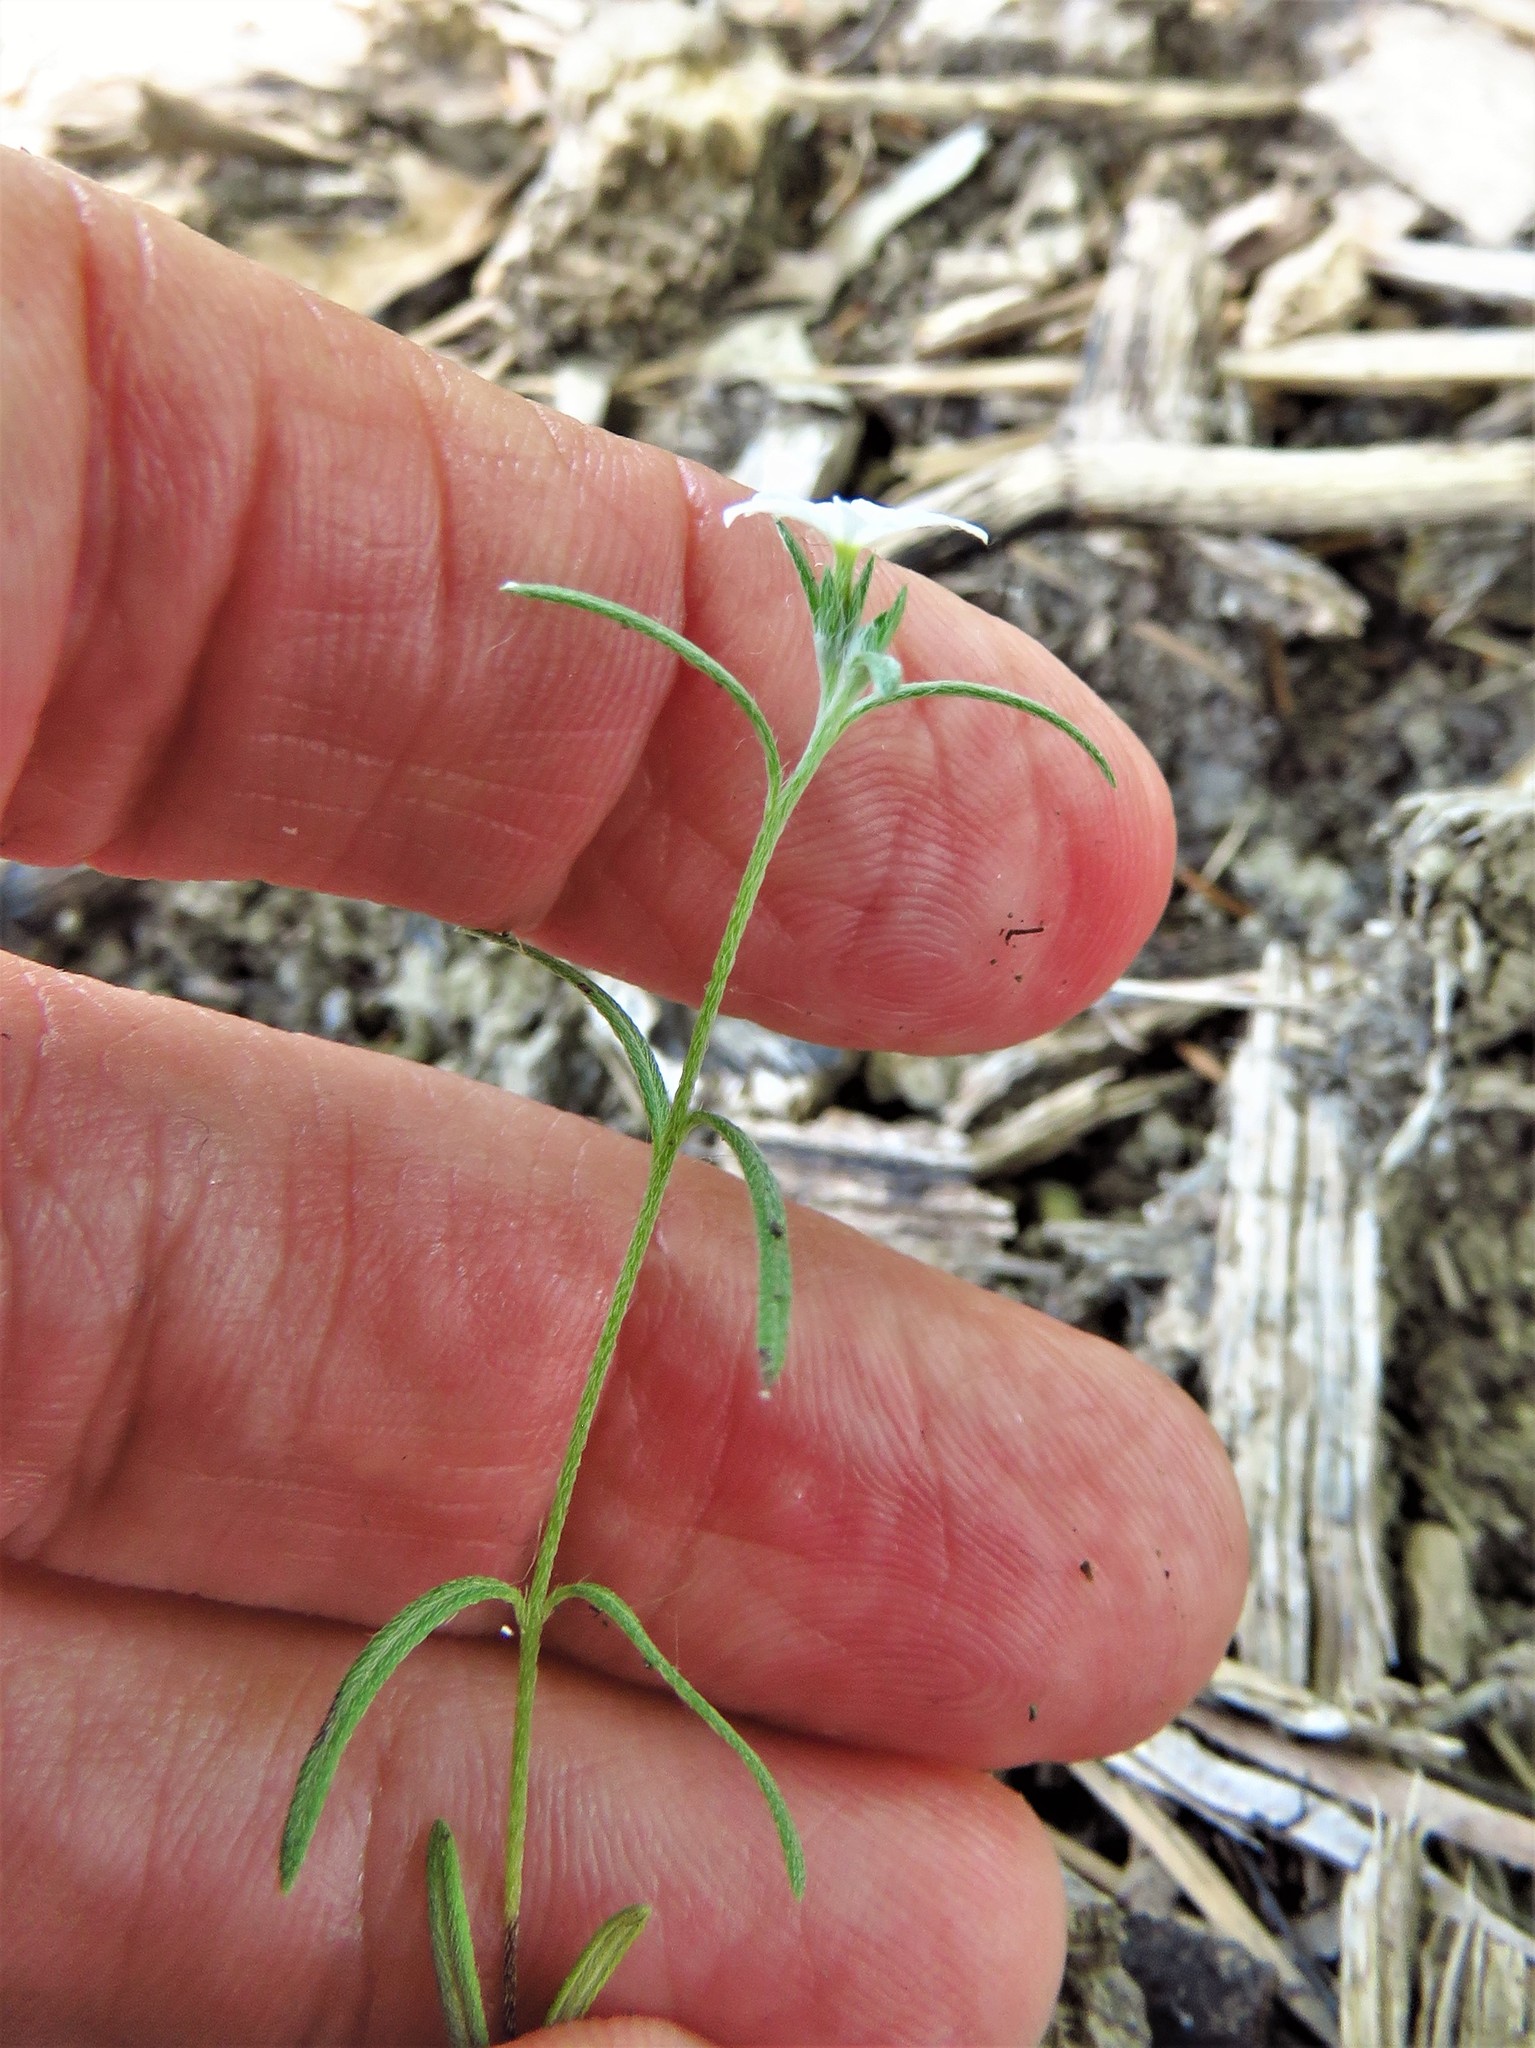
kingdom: Plantae
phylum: Tracheophyta
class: Magnoliopsida
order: Boraginales
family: Heliotropiaceae
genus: Euploca
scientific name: Euploca tenella
